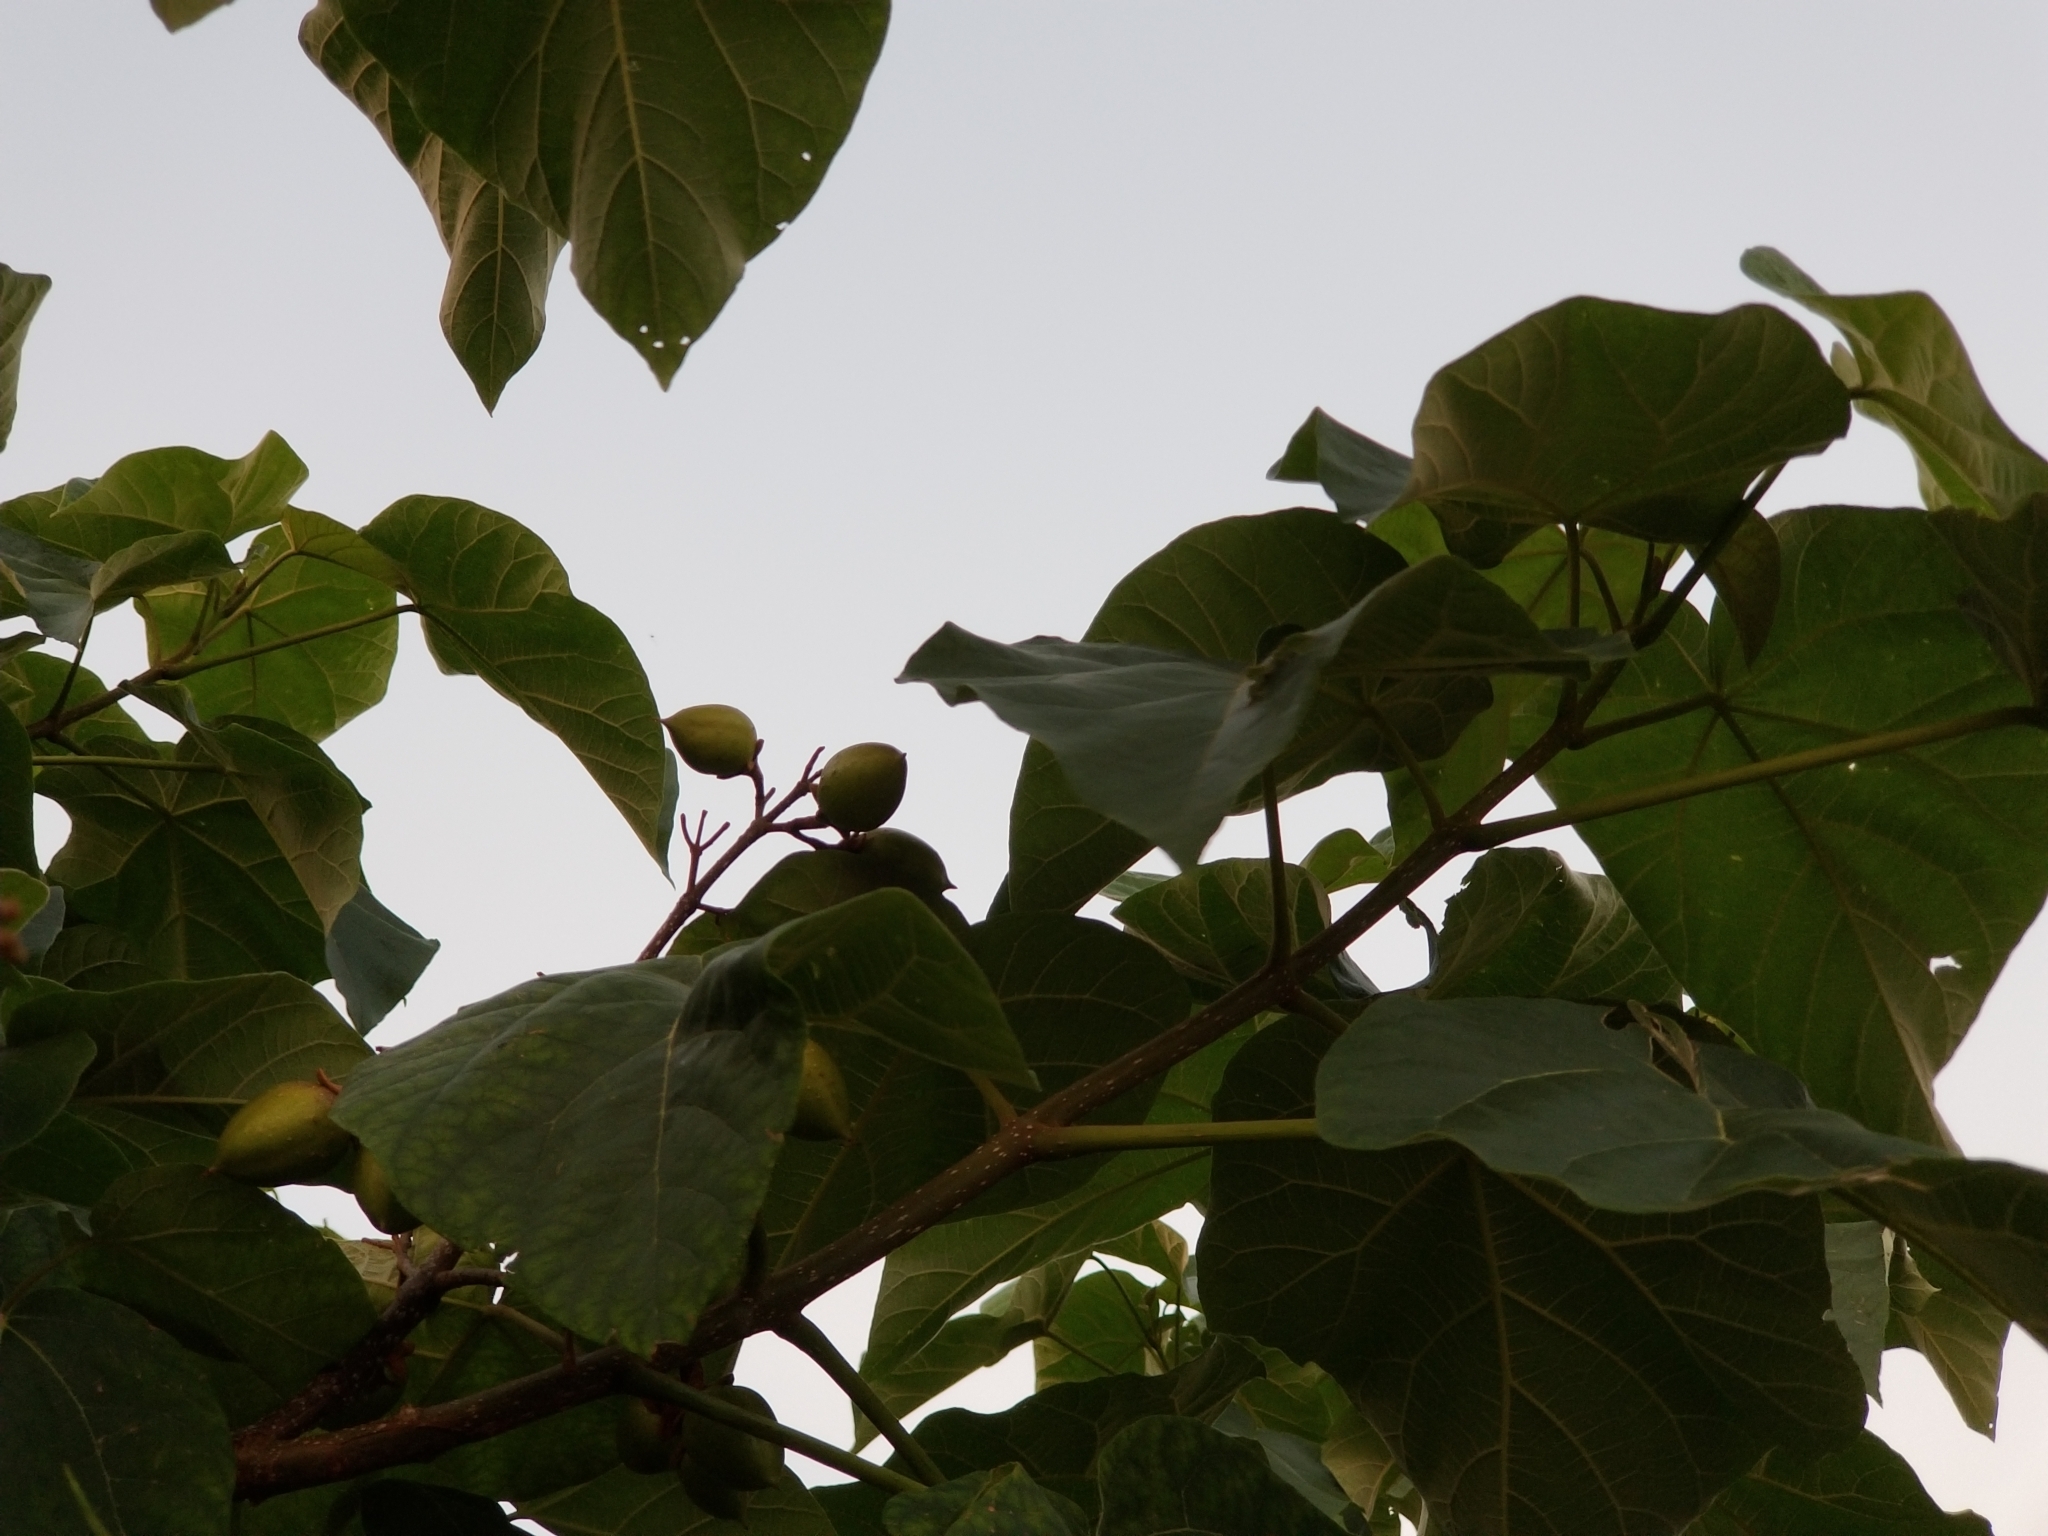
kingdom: Plantae
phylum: Tracheophyta
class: Magnoliopsida
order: Lamiales
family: Paulowniaceae
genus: Paulownia
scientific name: Paulownia tomentosa
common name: Foxglove-tree
